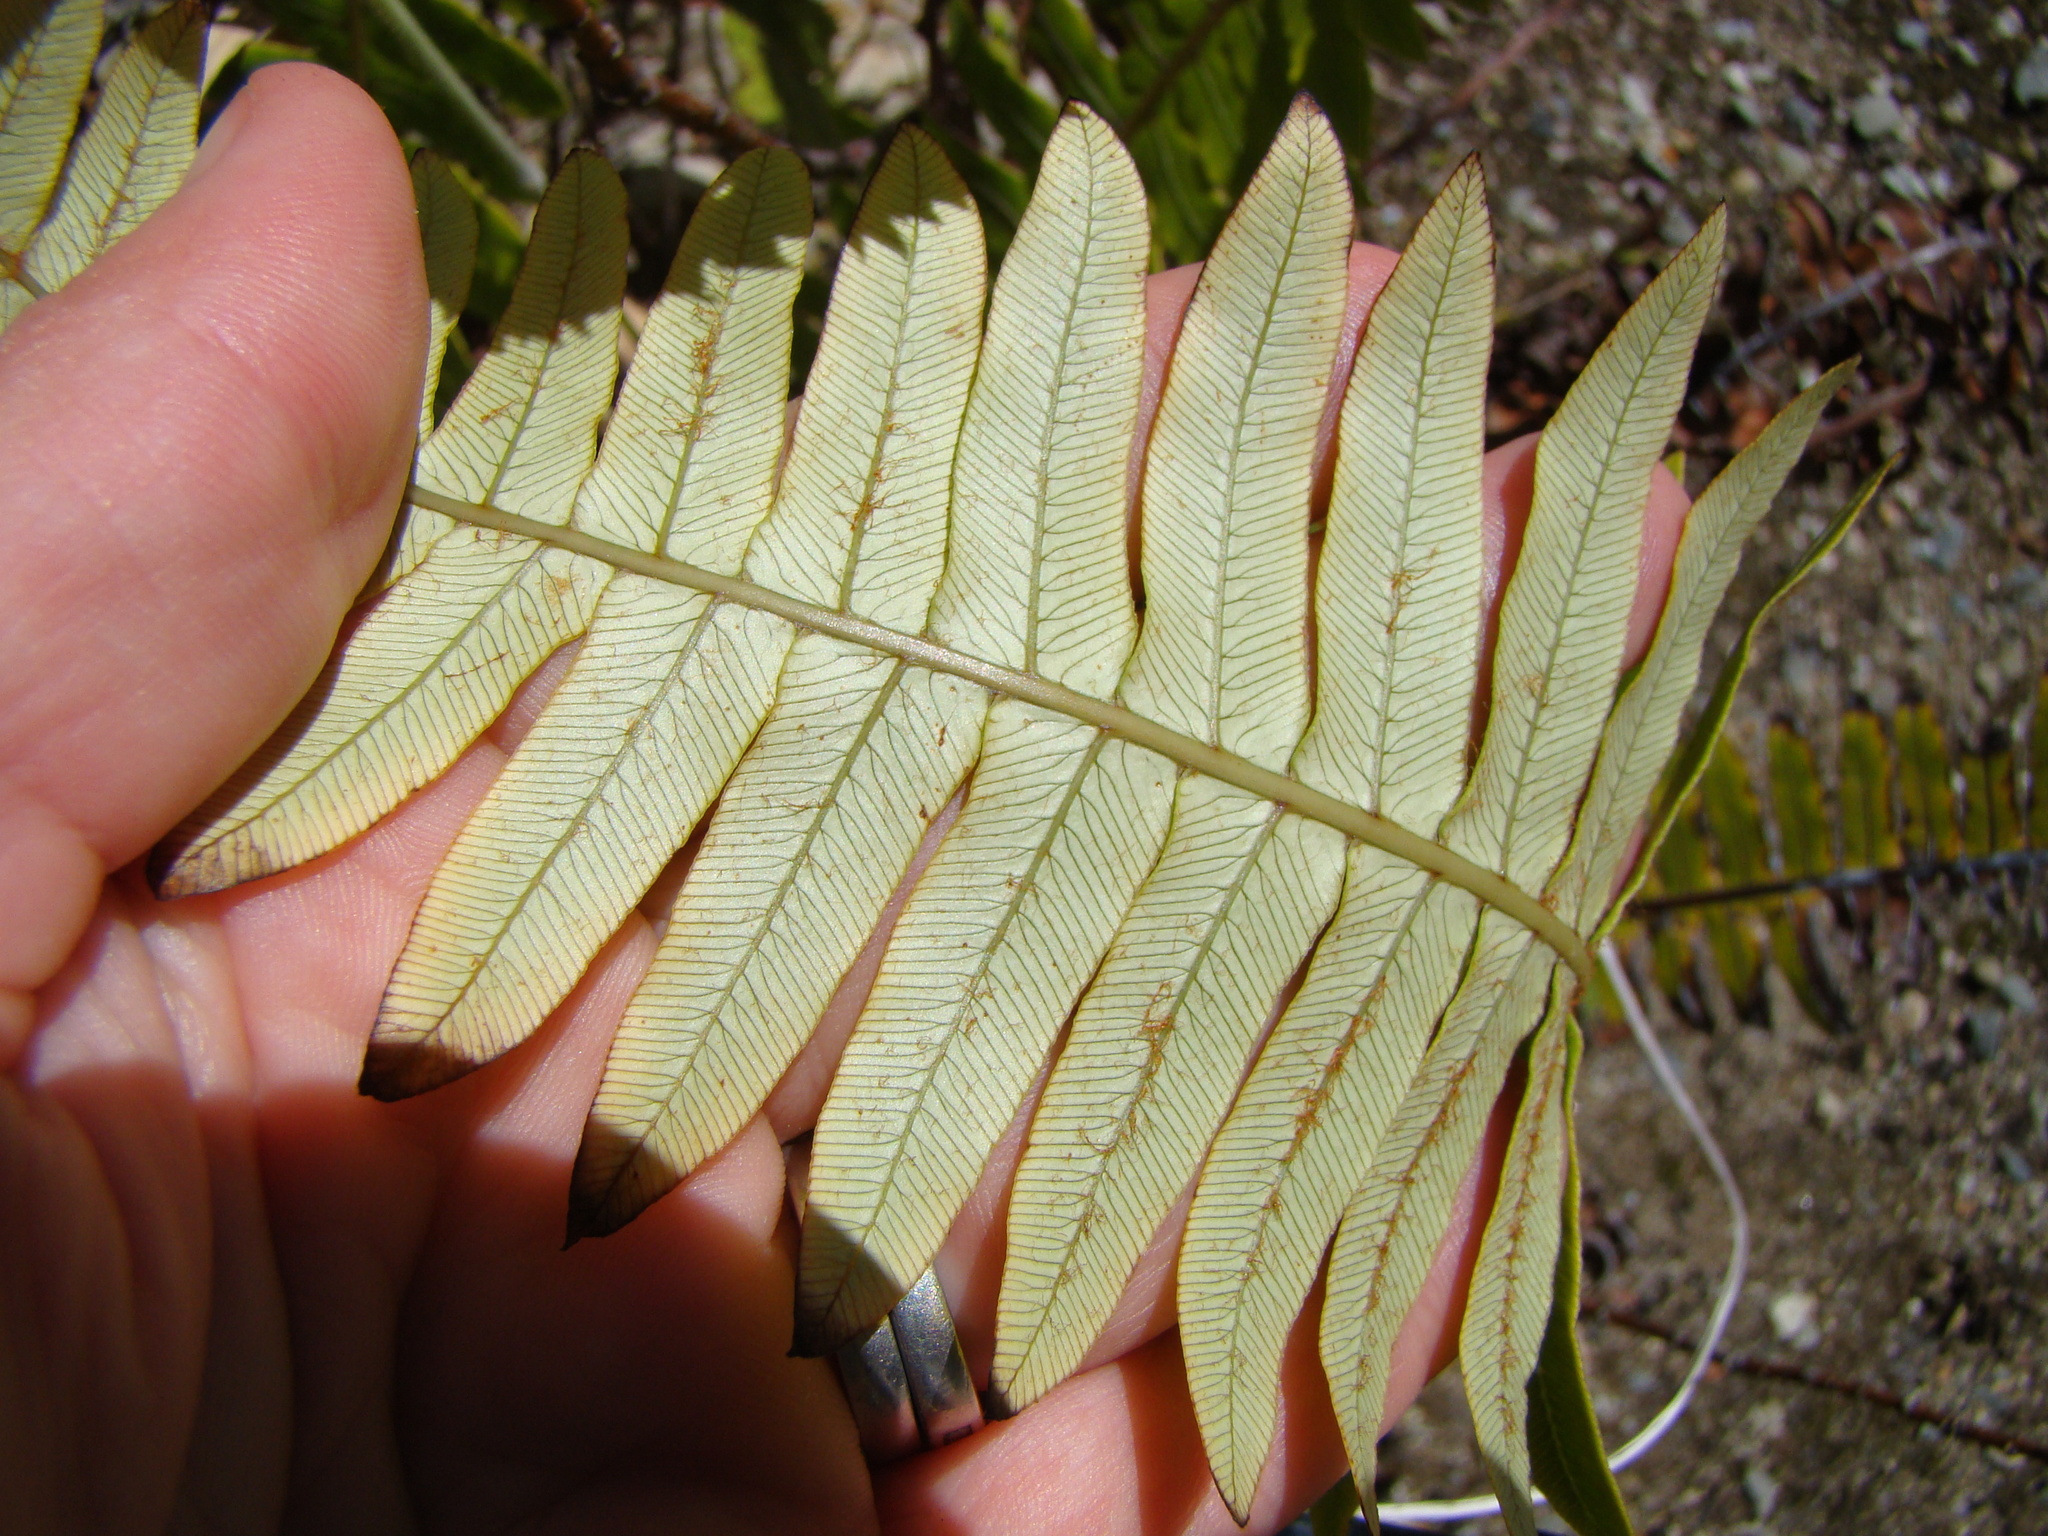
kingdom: Plantae
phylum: Tracheophyta
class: Polypodiopsida
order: Polypodiales
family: Blechnaceae
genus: Lomaria
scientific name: Lomaria discolor
